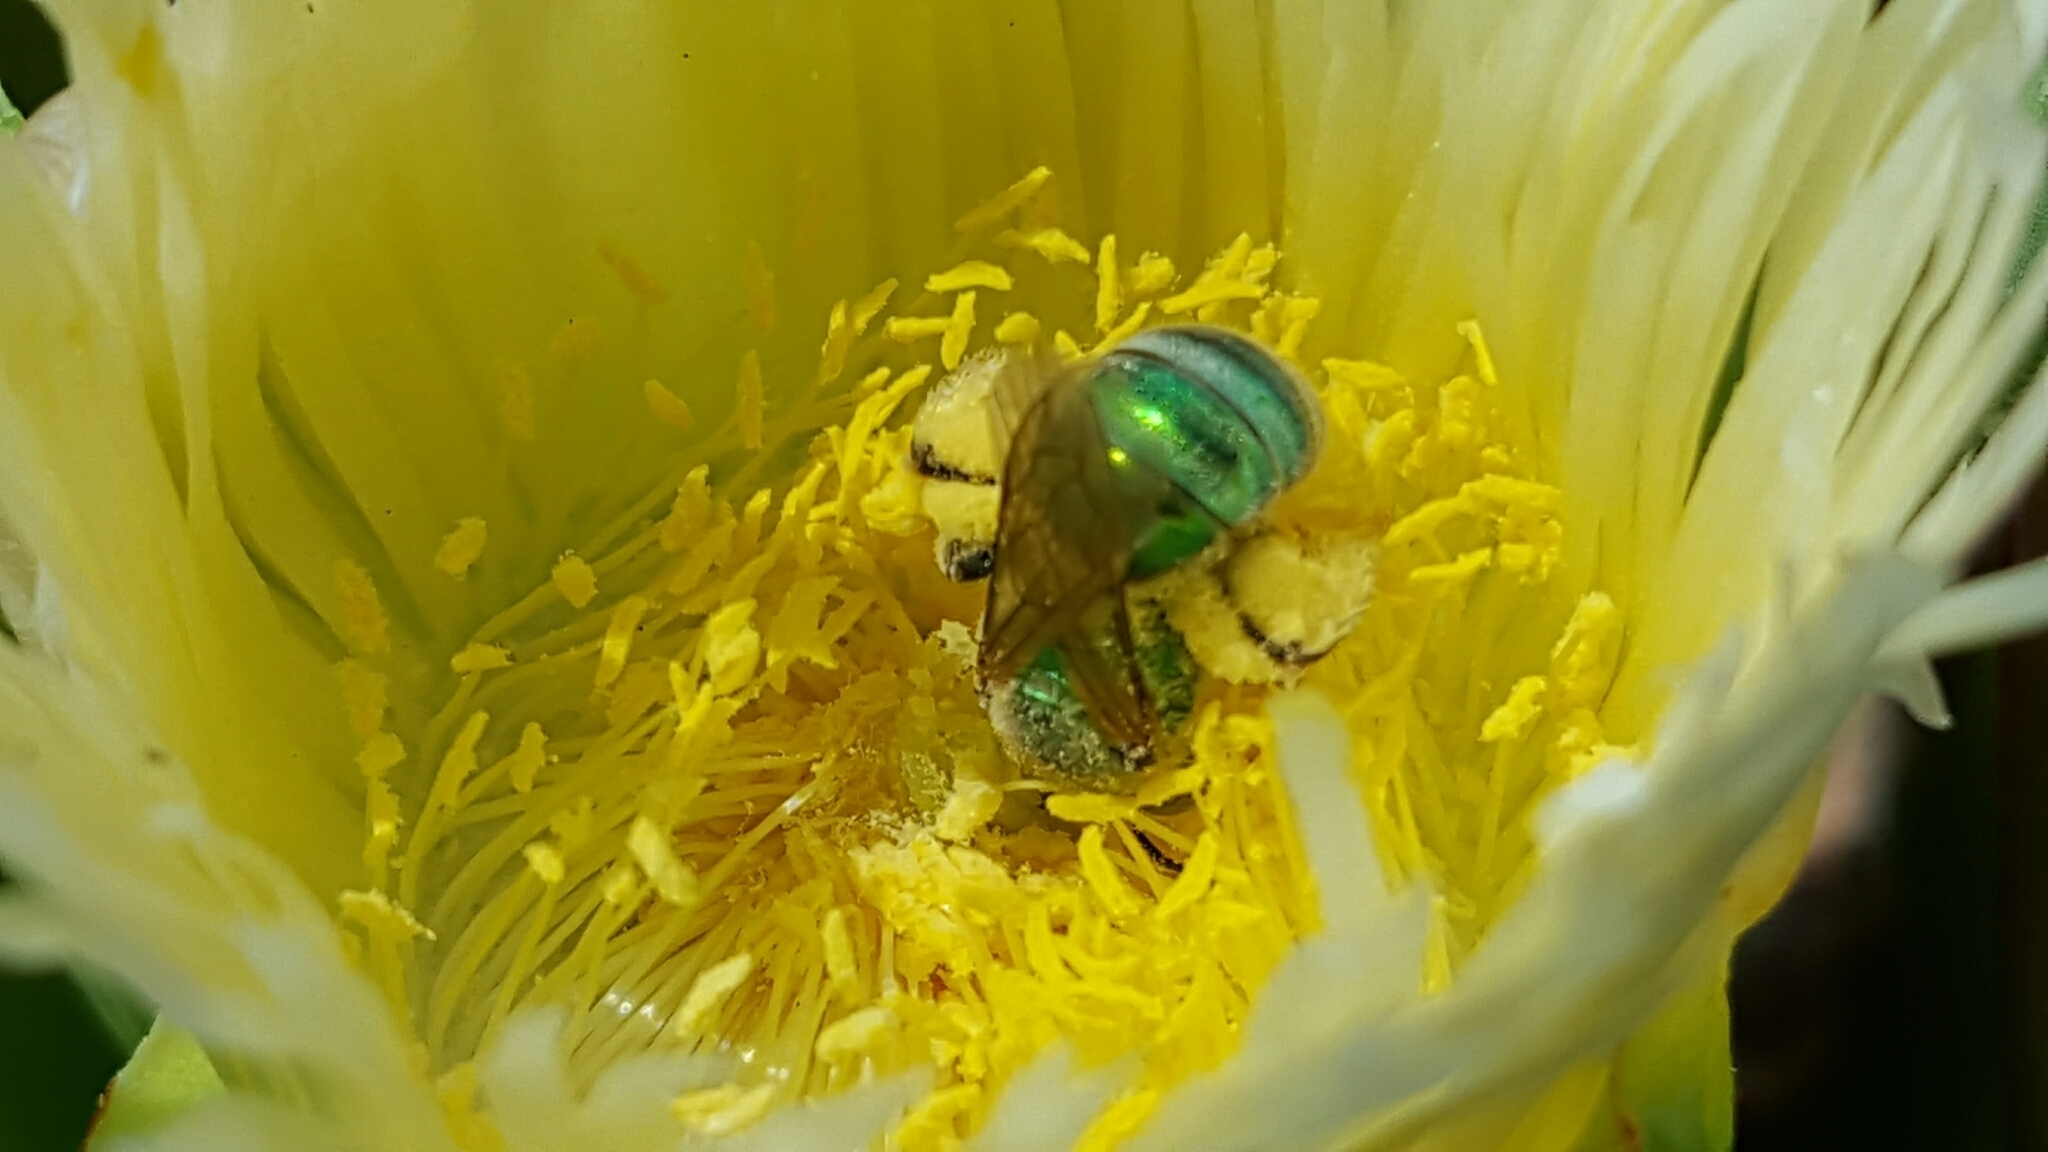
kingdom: Animalia
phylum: Arthropoda
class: Insecta
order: Hymenoptera
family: Halictidae
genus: Agapostemon
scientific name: Agapostemon
